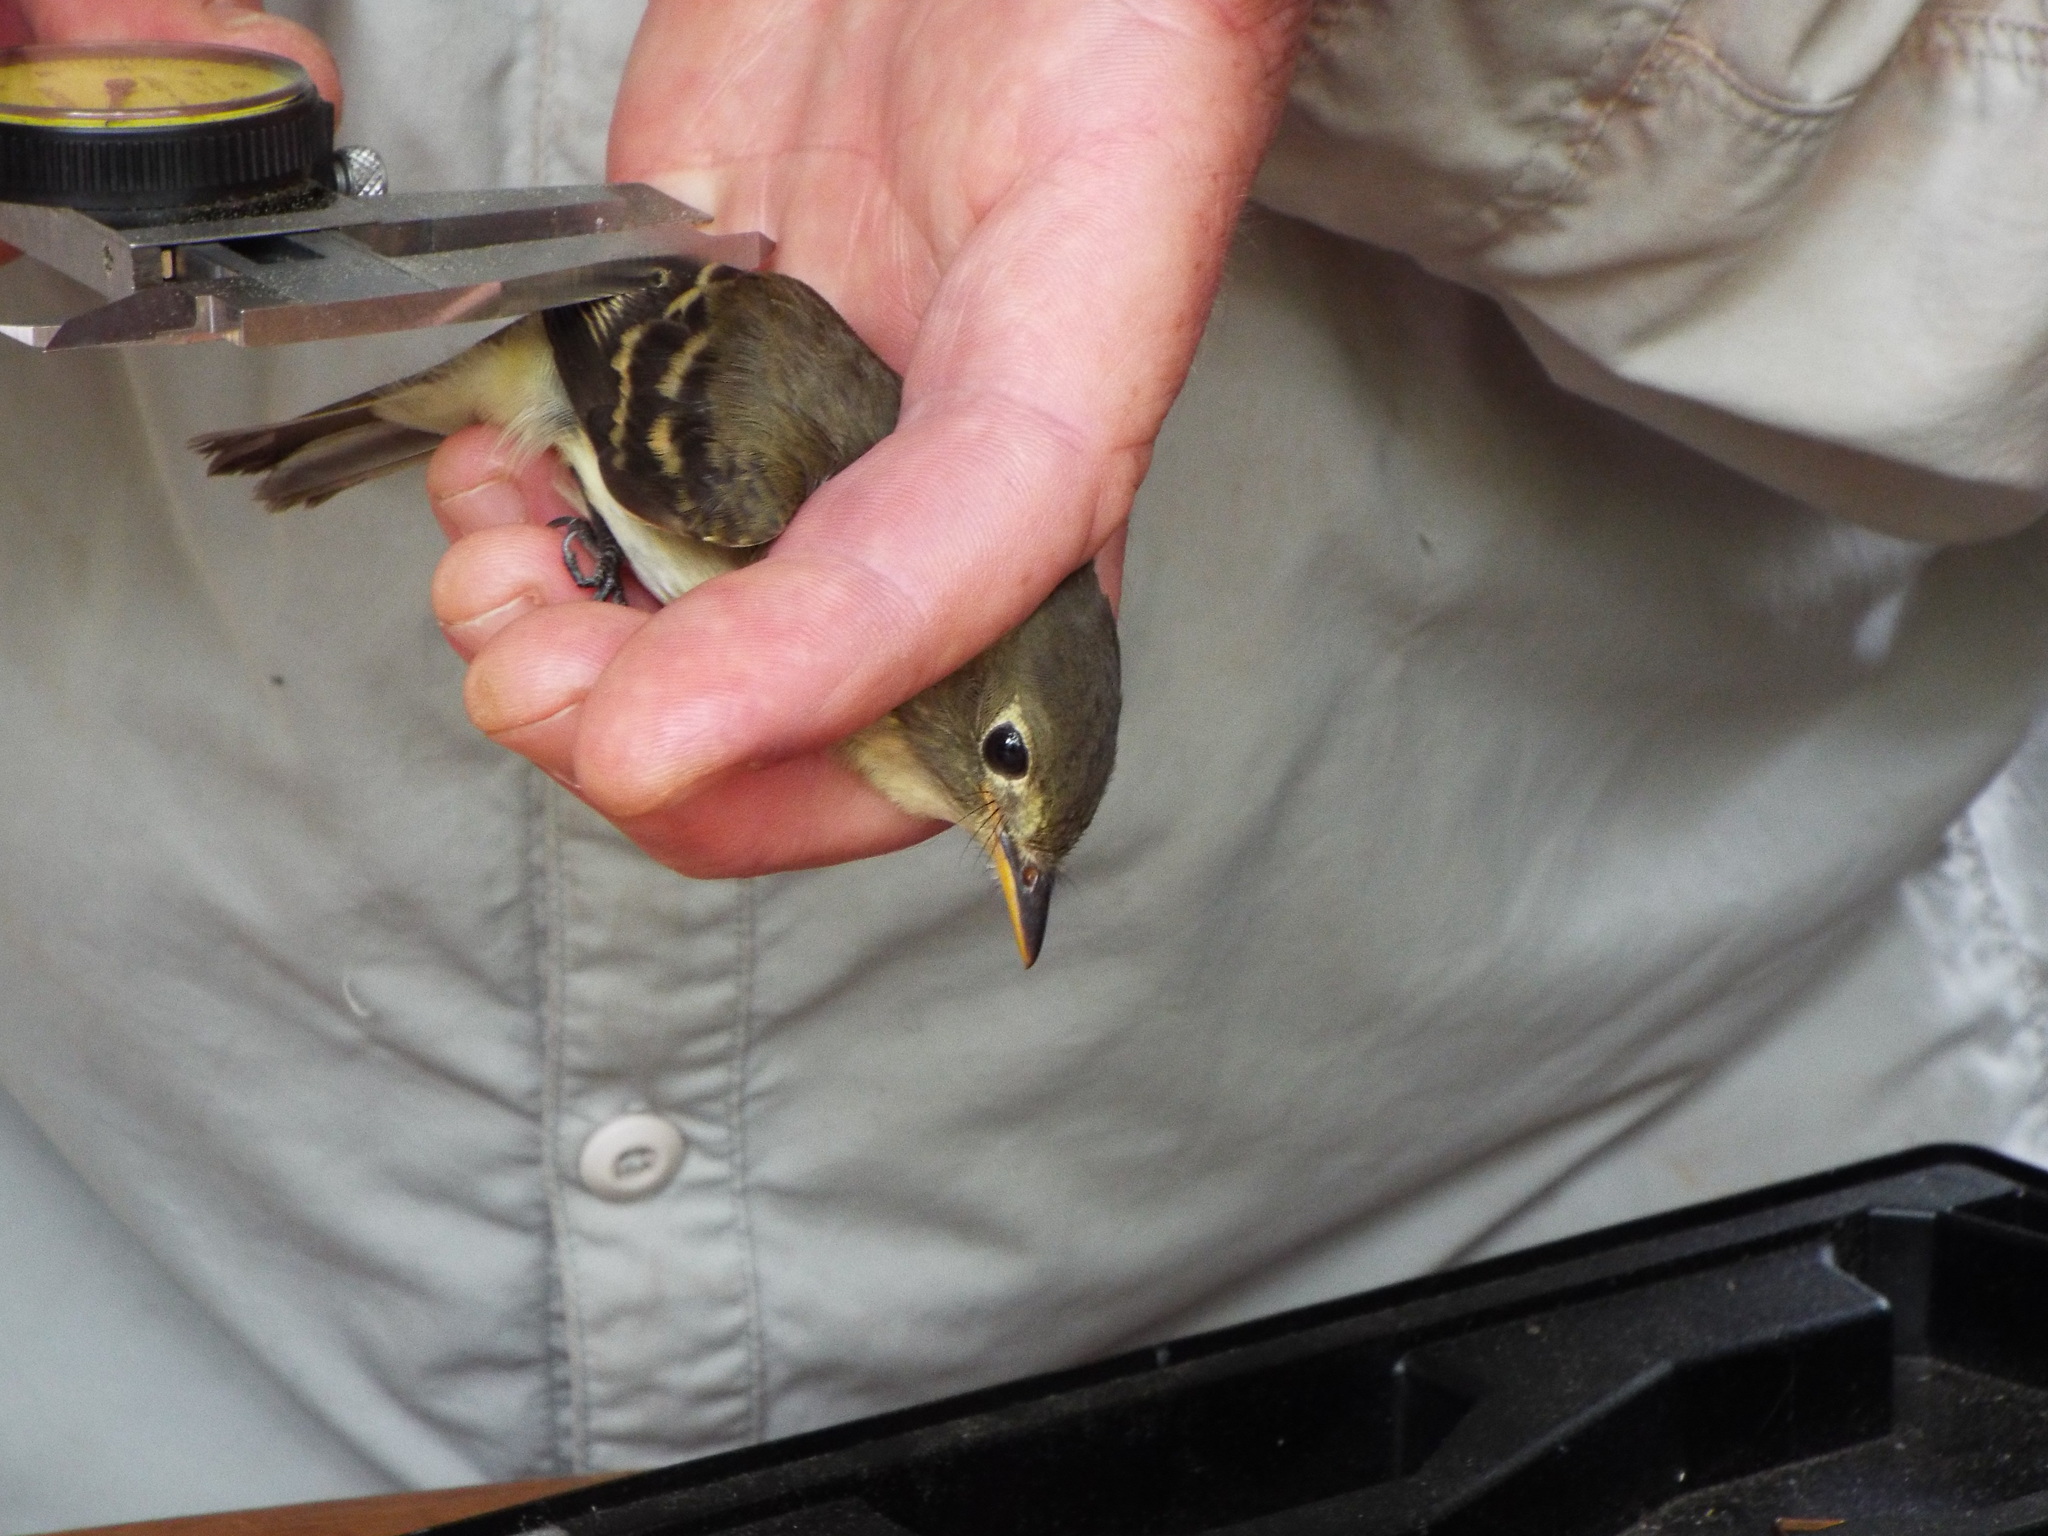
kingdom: Animalia
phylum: Chordata
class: Aves
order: Passeriformes
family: Tyrannidae
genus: Empidonax
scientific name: Empidonax flaviventris
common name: Yellow-bellied flycatcher
